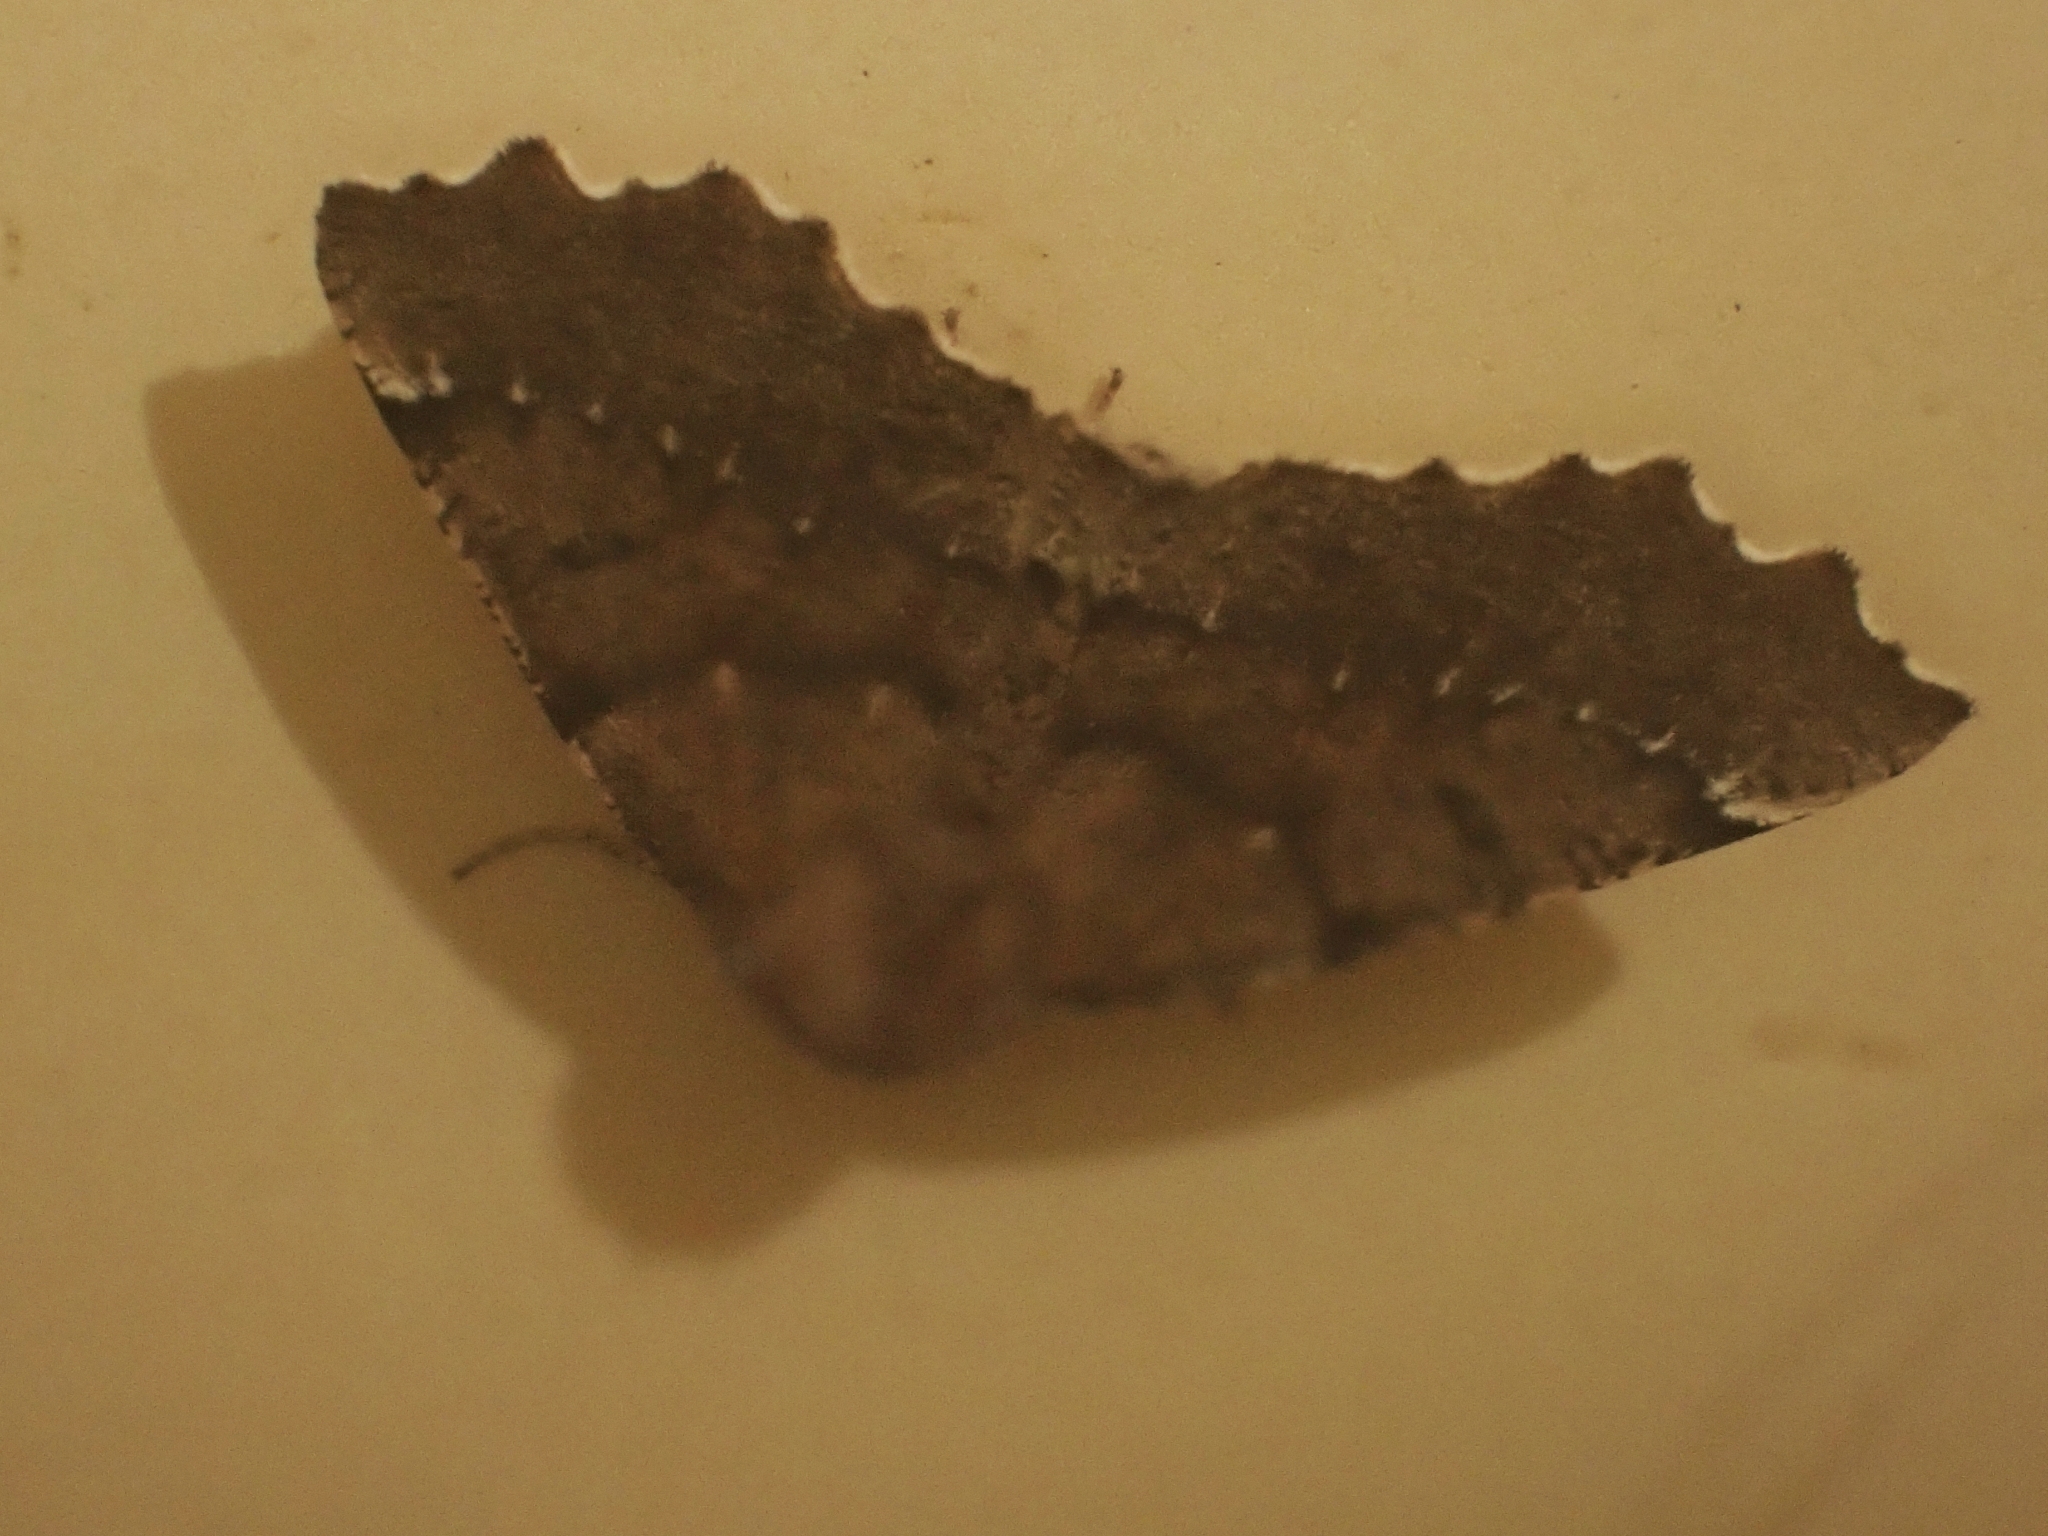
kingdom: Animalia
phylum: Arthropoda
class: Insecta
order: Lepidoptera
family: Geometridae
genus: Odontopera
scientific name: Odontopera bidentata
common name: Scalloped hazel
